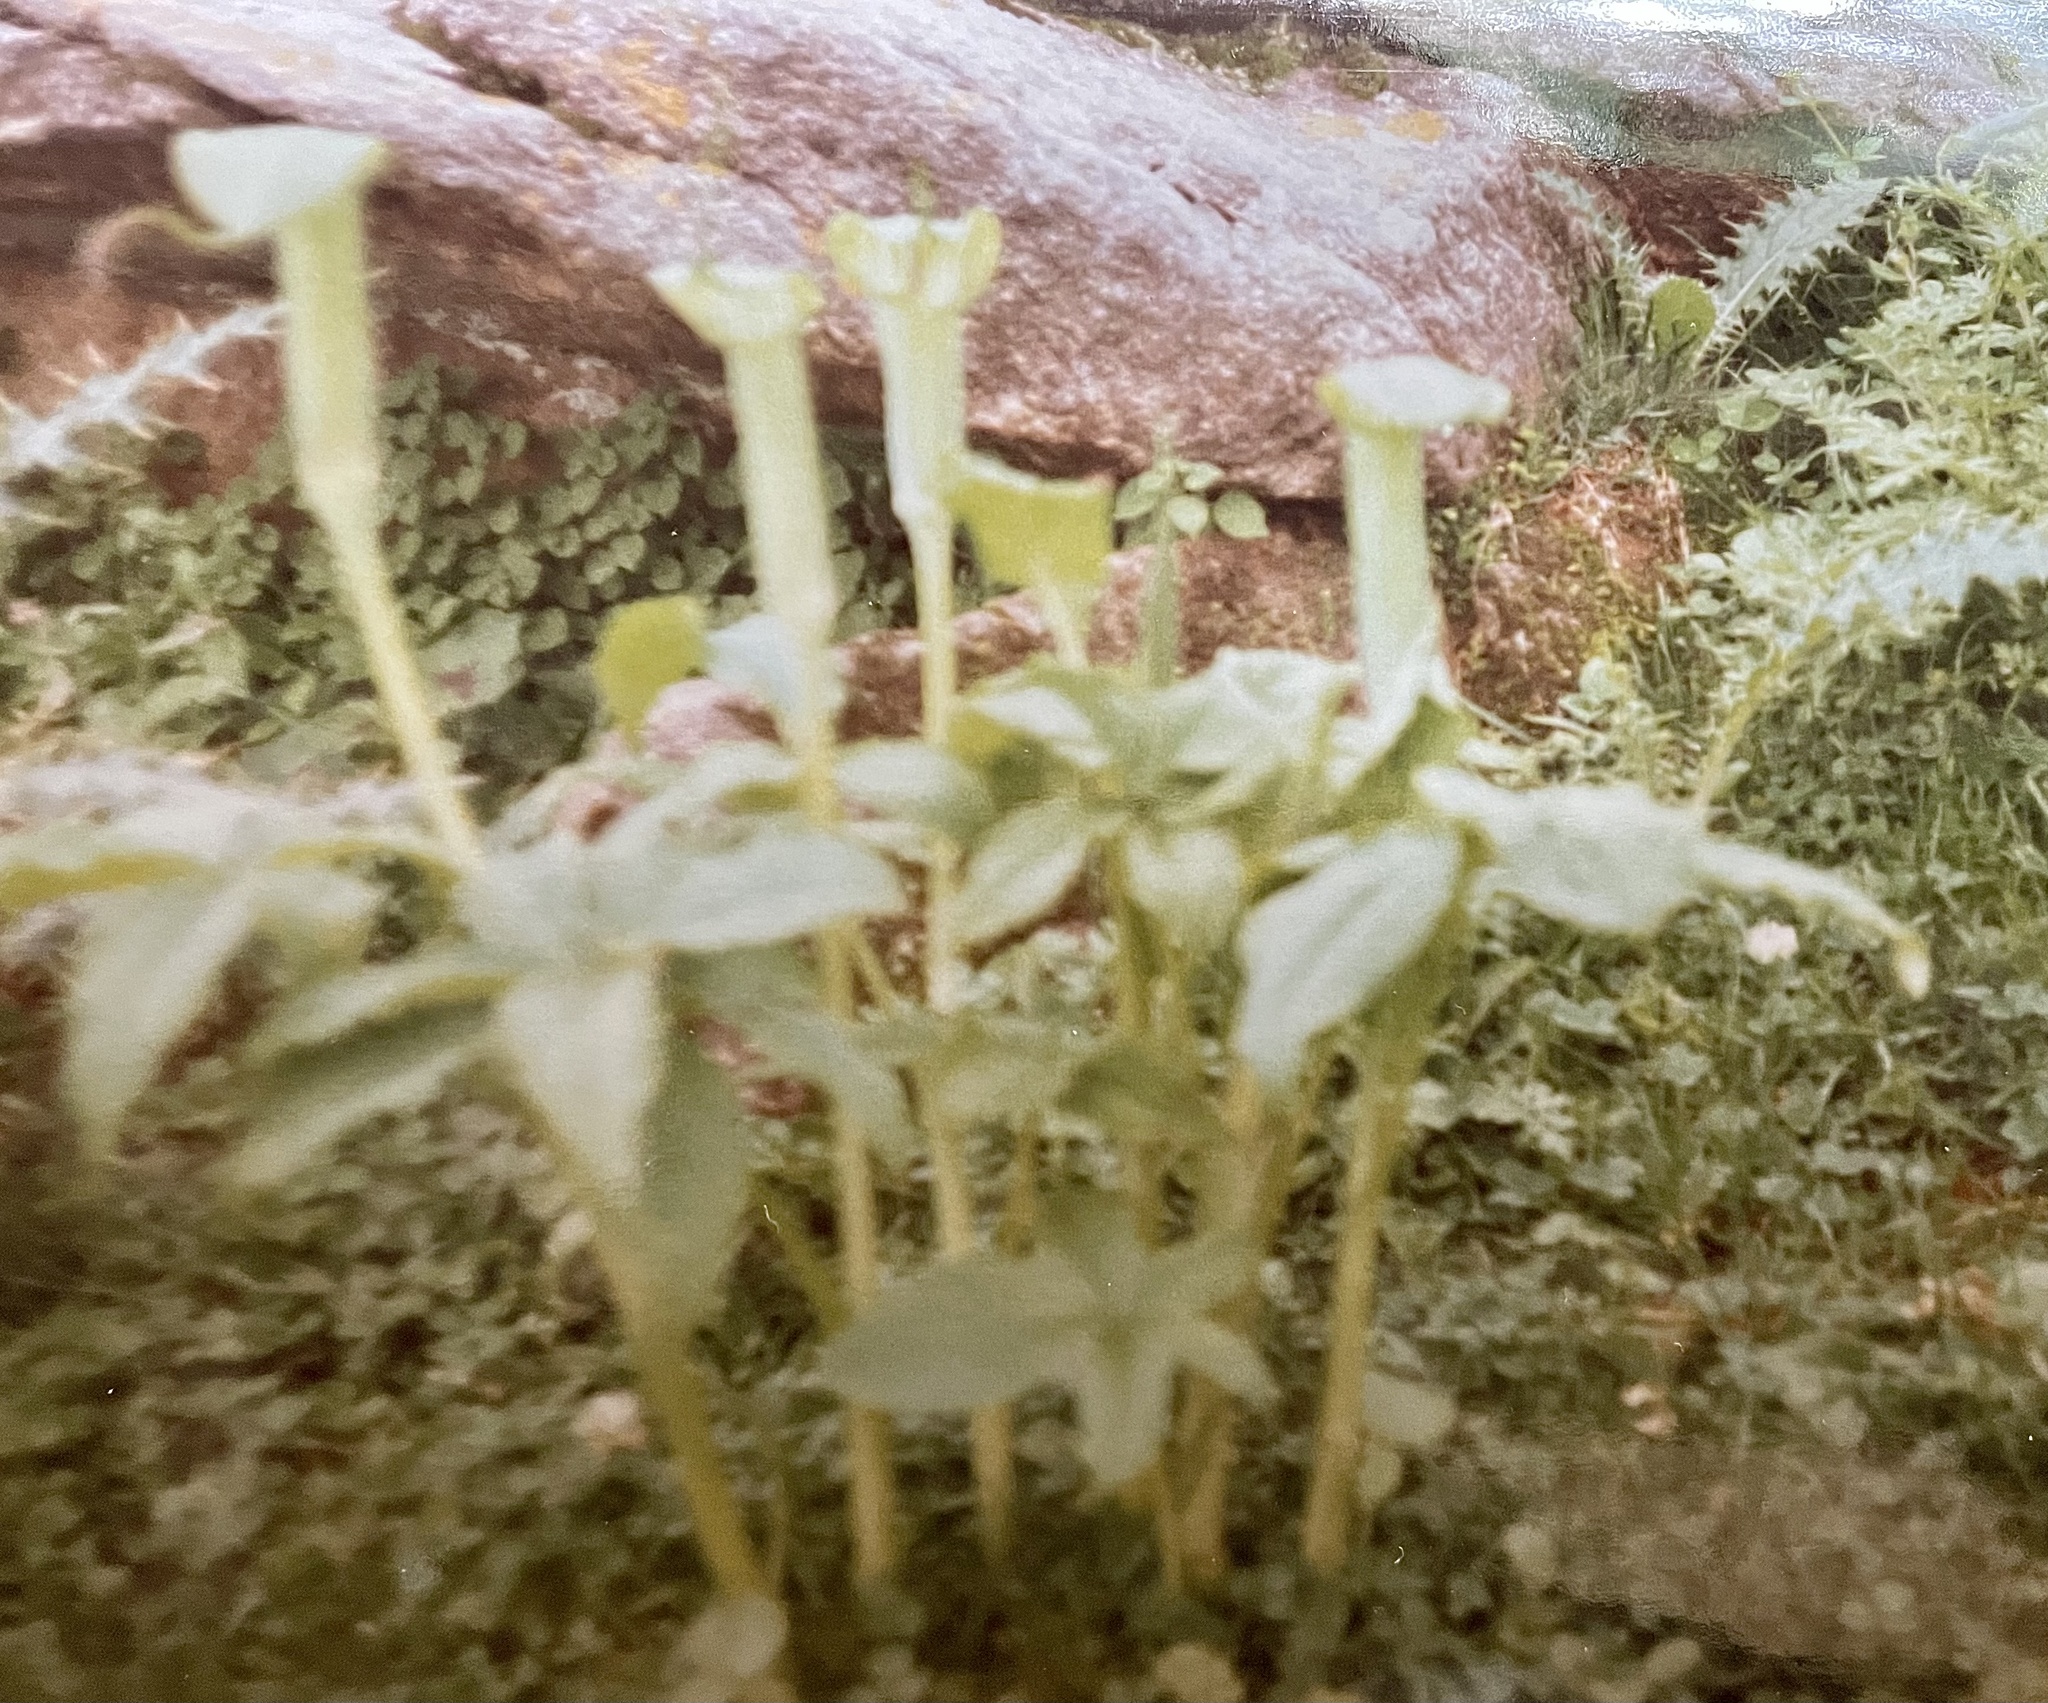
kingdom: Plantae
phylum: Tracheophyta
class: Liliopsida
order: Alismatales
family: Araceae
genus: Arisaema
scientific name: Arisaema jacquemontii
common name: Jacquemont's cobra-lily
